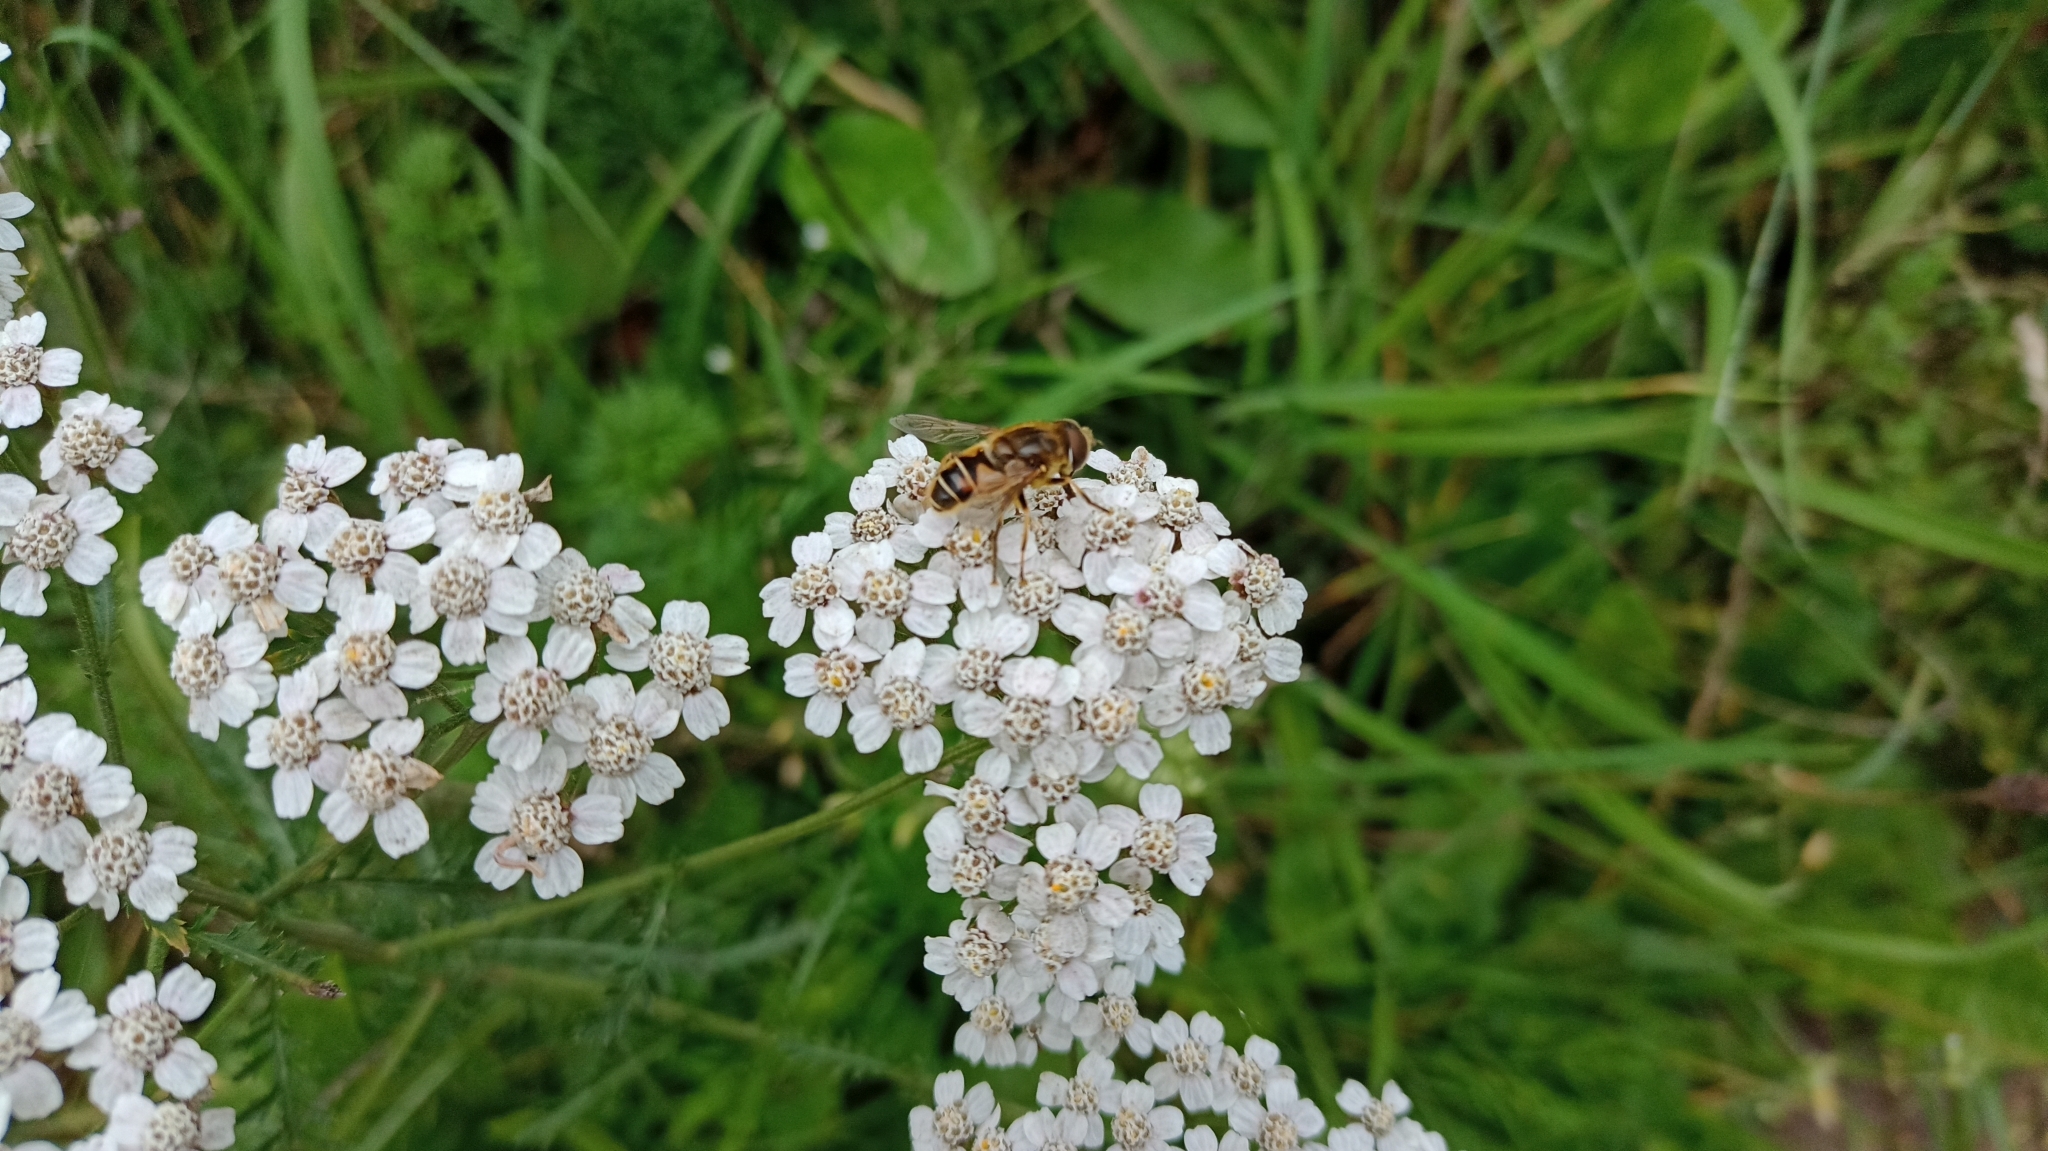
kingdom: Animalia
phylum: Arthropoda
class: Insecta
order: Diptera
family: Syrphidae
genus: Eristalis
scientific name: Eristalis nemorum
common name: Orange-spined drone fly
